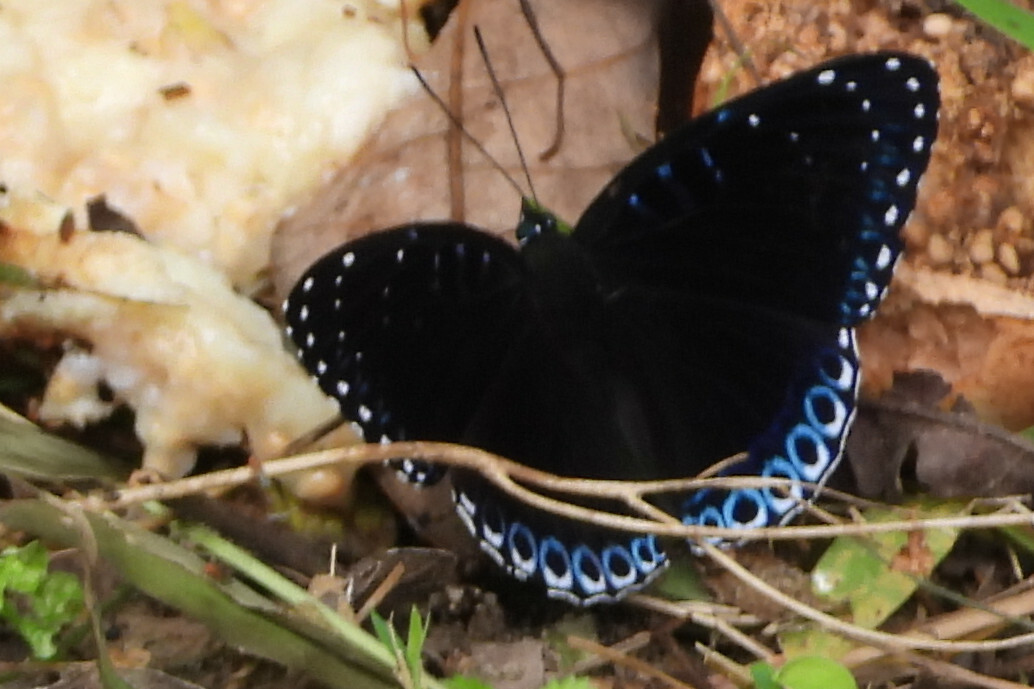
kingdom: Animalia
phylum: Arthropoda
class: Insecta
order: Lepidoptera
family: Nymphalidae
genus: Stibochiona
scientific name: Stibochiona nicea
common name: Popinjay
